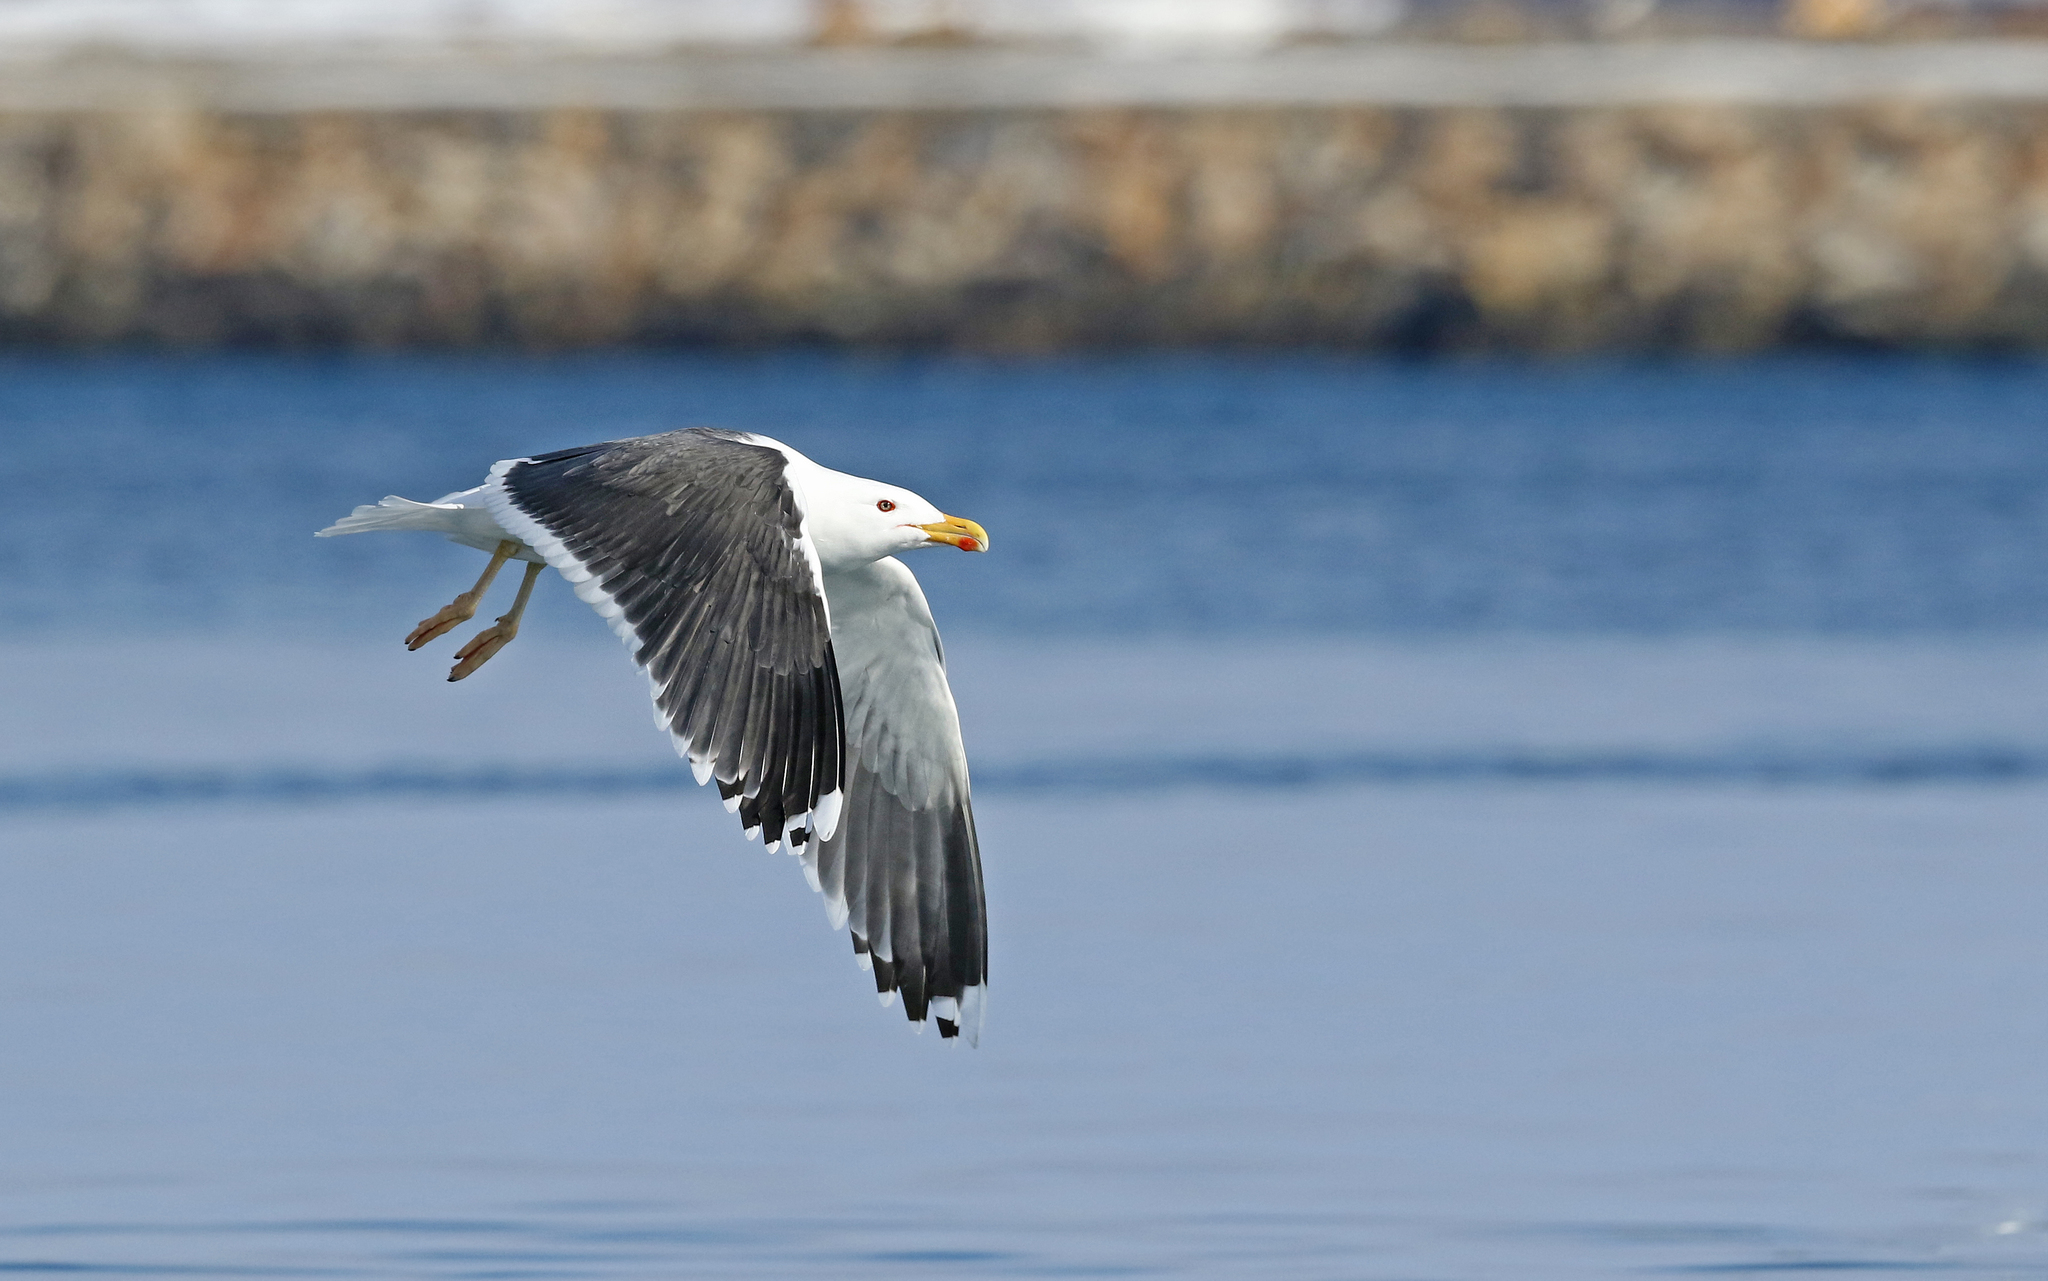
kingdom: Animalia
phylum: Chordata
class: Aves
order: Charadriiformes
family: Laridae
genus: Larus
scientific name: Larus marinus
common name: Great black-backed gull
